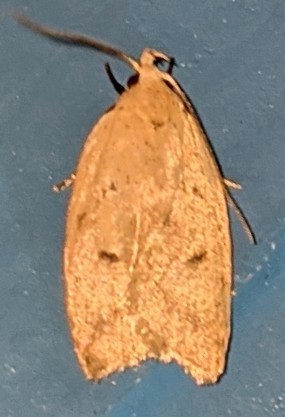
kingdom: Animalia
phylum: Arthropoda
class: Insecta
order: Lepidoptera
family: Peleopodidae
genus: Machimia
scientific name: Machimia tentoriferella
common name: Gold-striped leaftier moth
